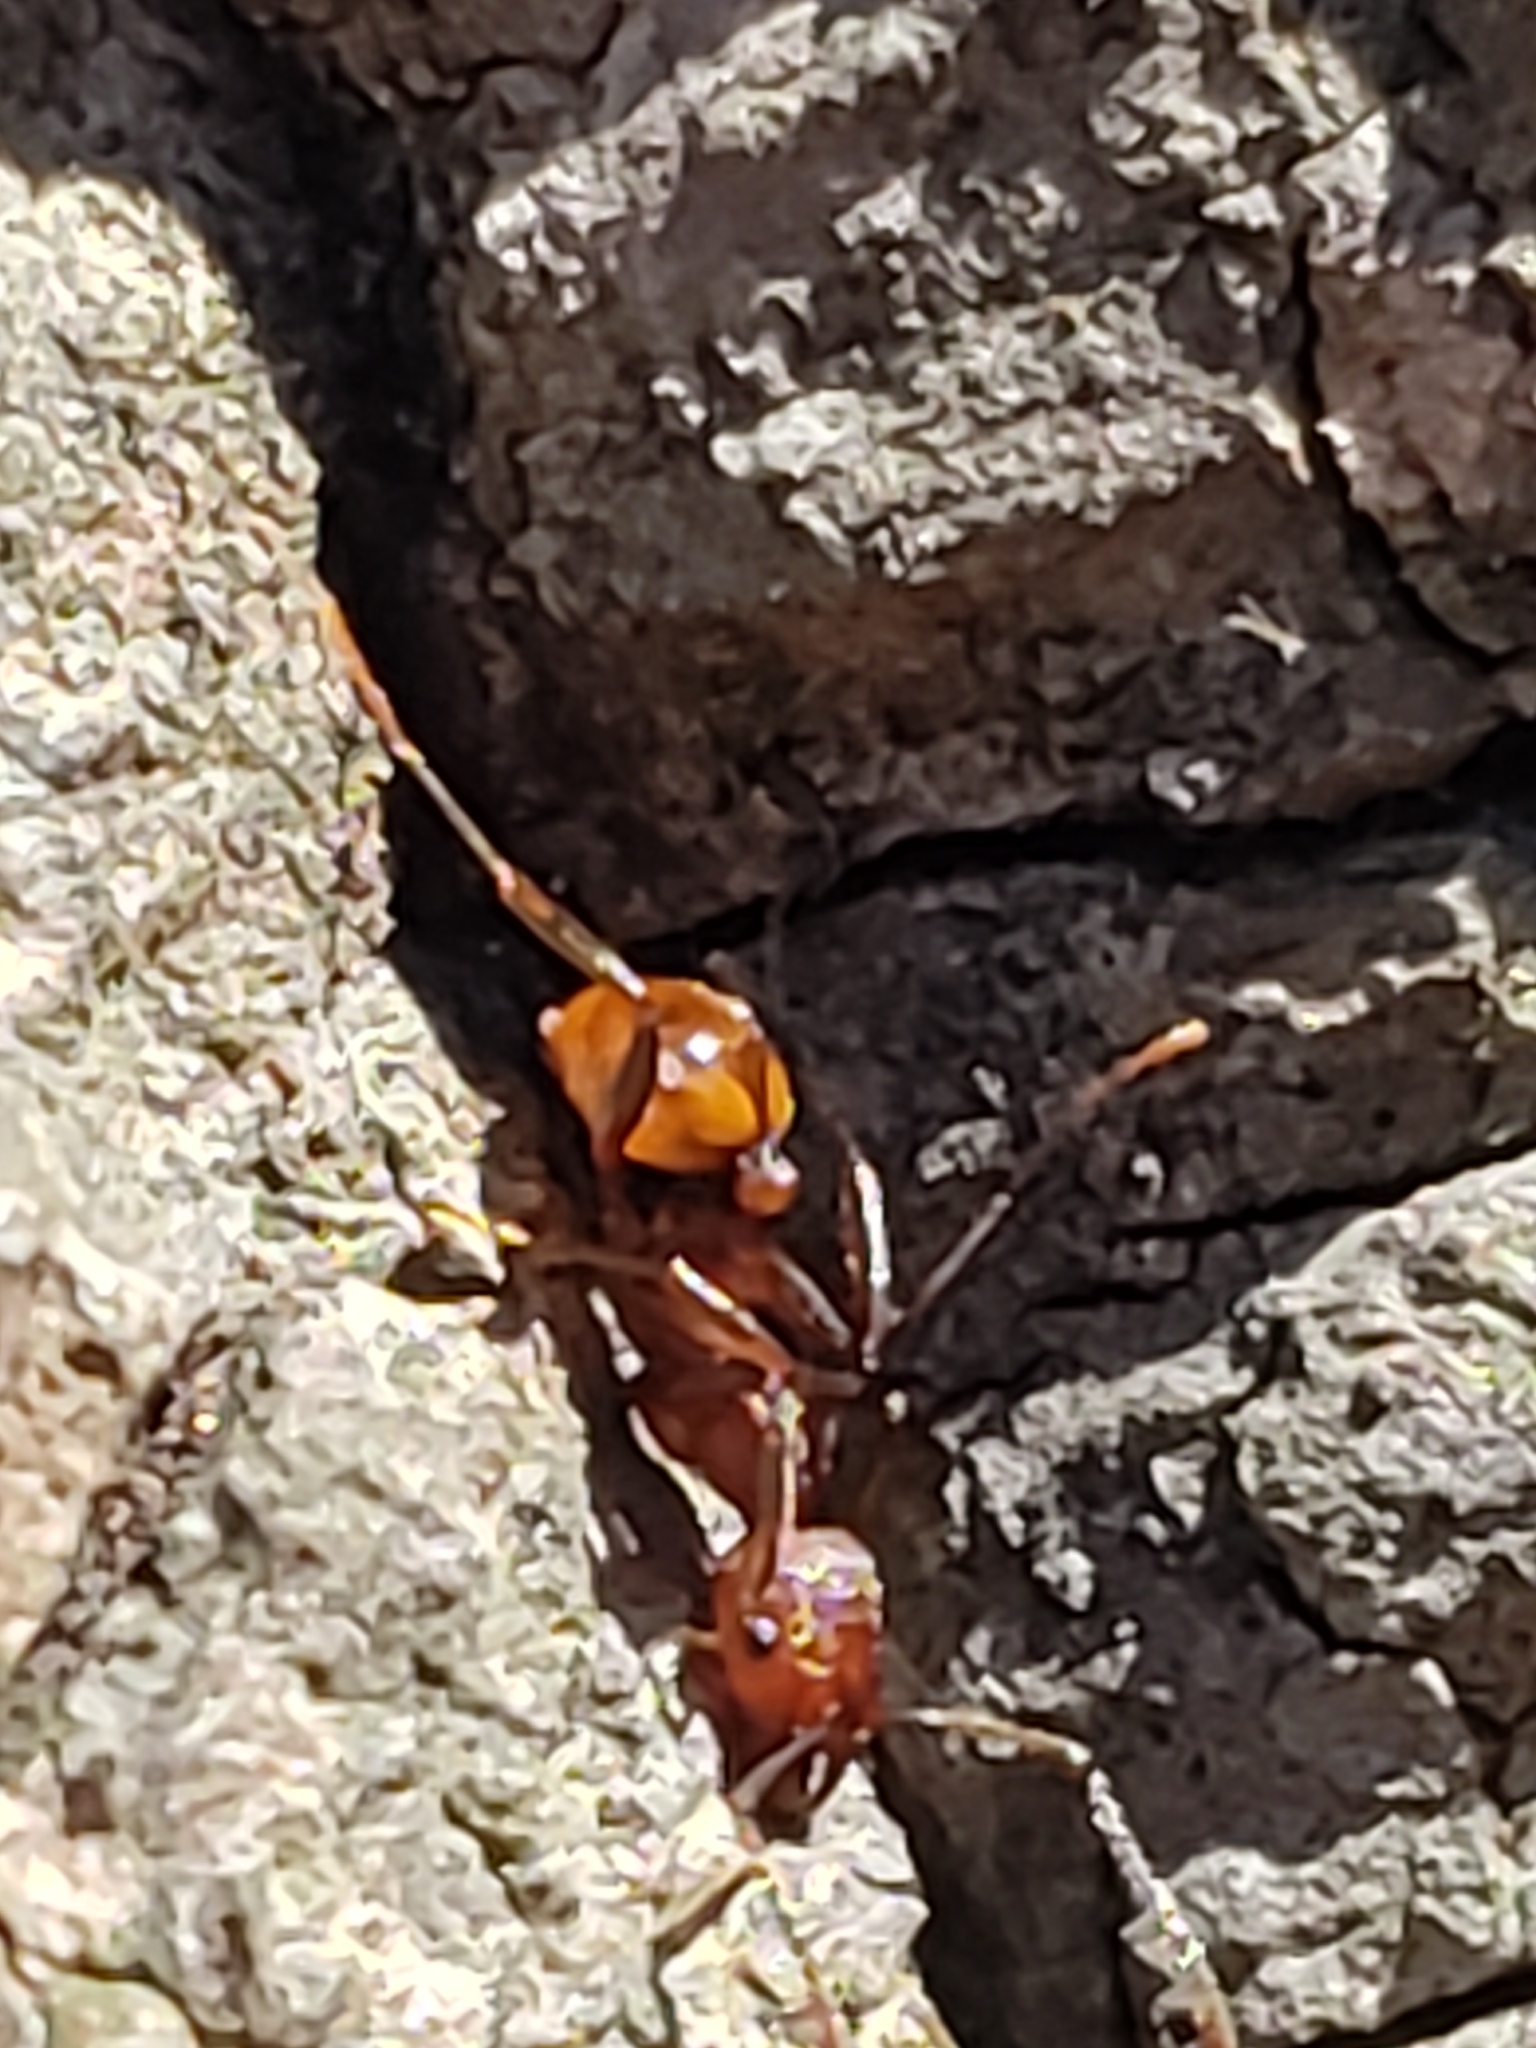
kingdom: Animalia
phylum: Arthropoda
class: Insecta
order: Hymenoptera
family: Formicidae
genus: Aphaenogaster
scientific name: Aphaenogaster tennesseensis
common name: Tennessee thread-waisted ant
